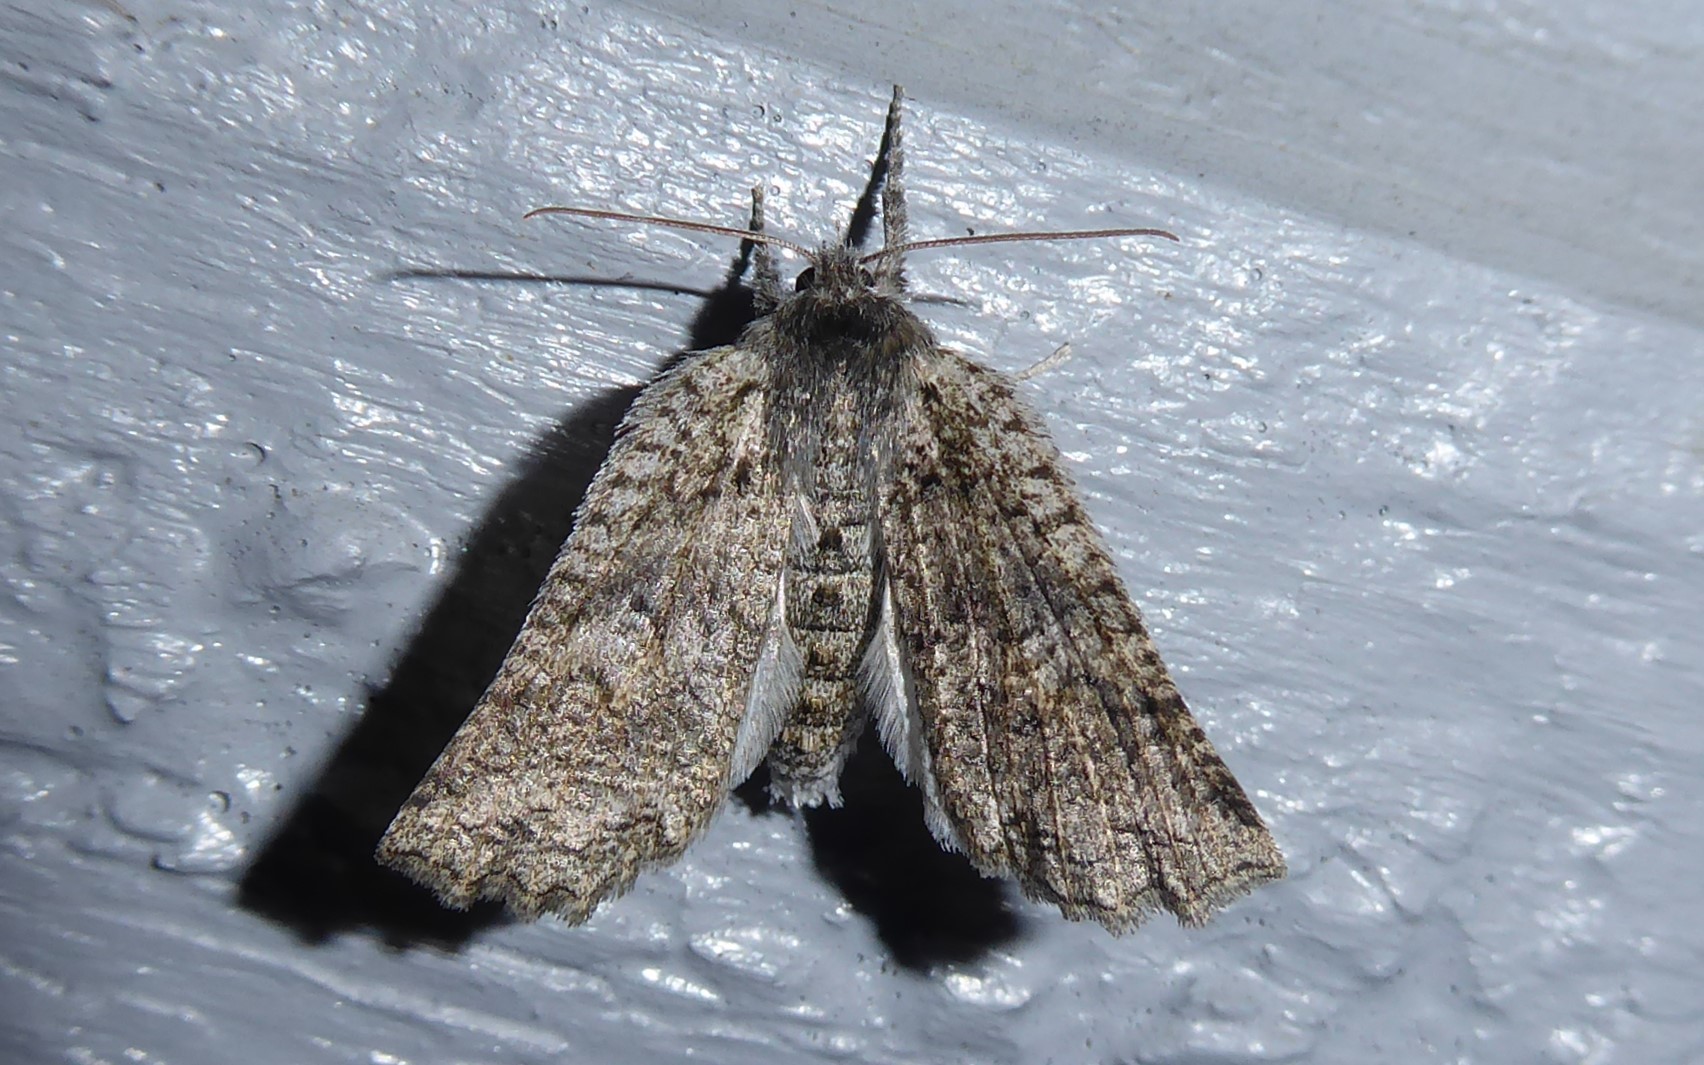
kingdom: Animalia
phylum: Arthropoda
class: Insecta
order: Lepidoptera
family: Geometridae
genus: Declana
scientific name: Declana niveata
